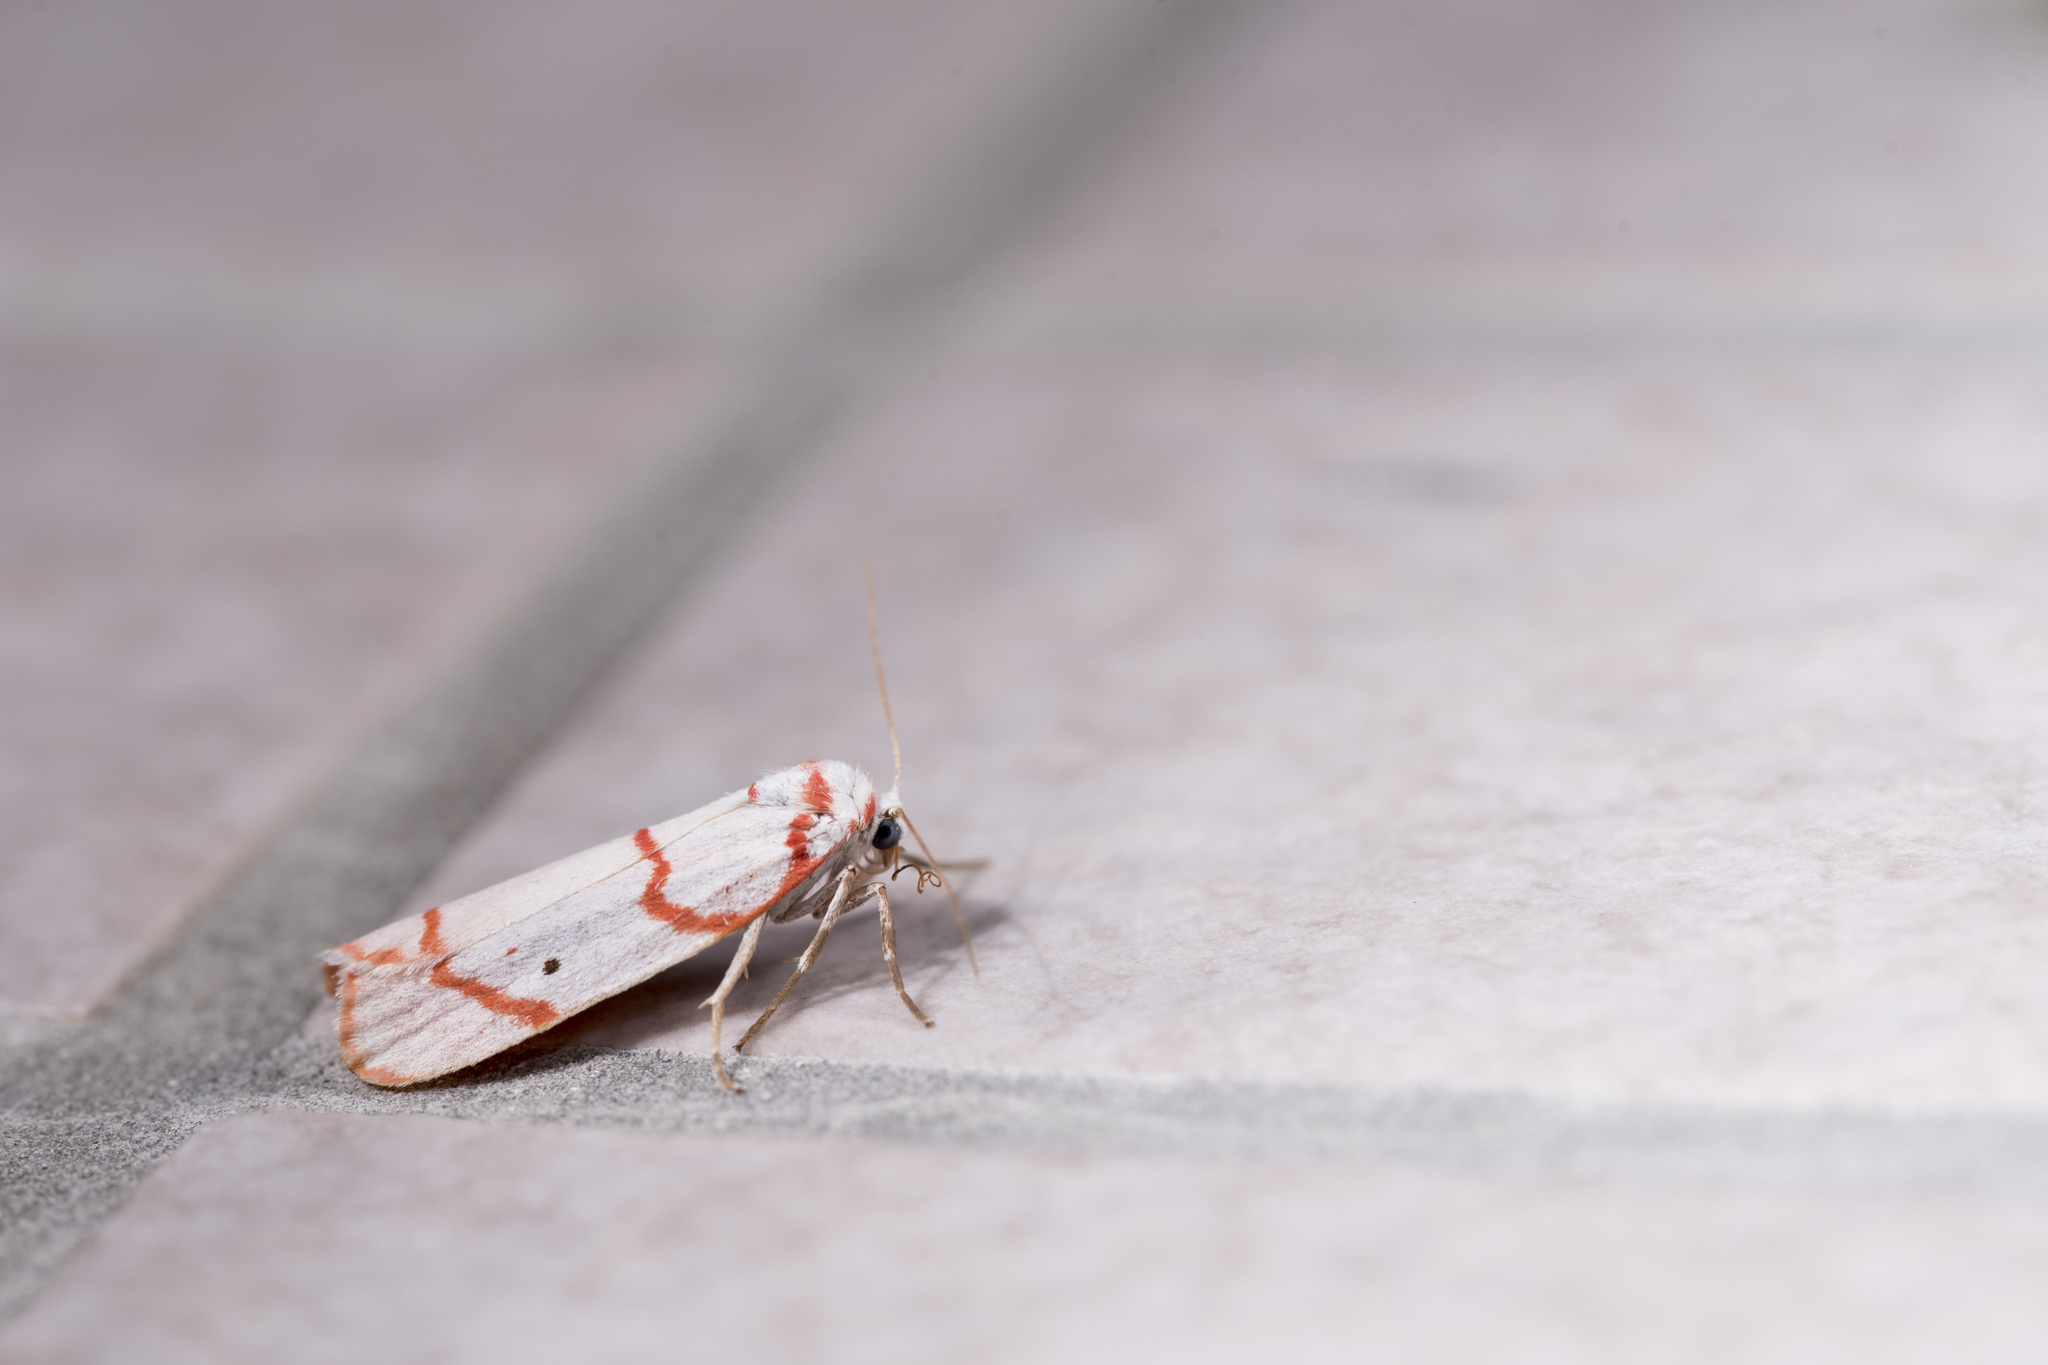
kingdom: Animalia
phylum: Arthropoda
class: Insecta
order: Lepidoptera
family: Erebidae
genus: Cyana
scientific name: Cyana sanguinea
